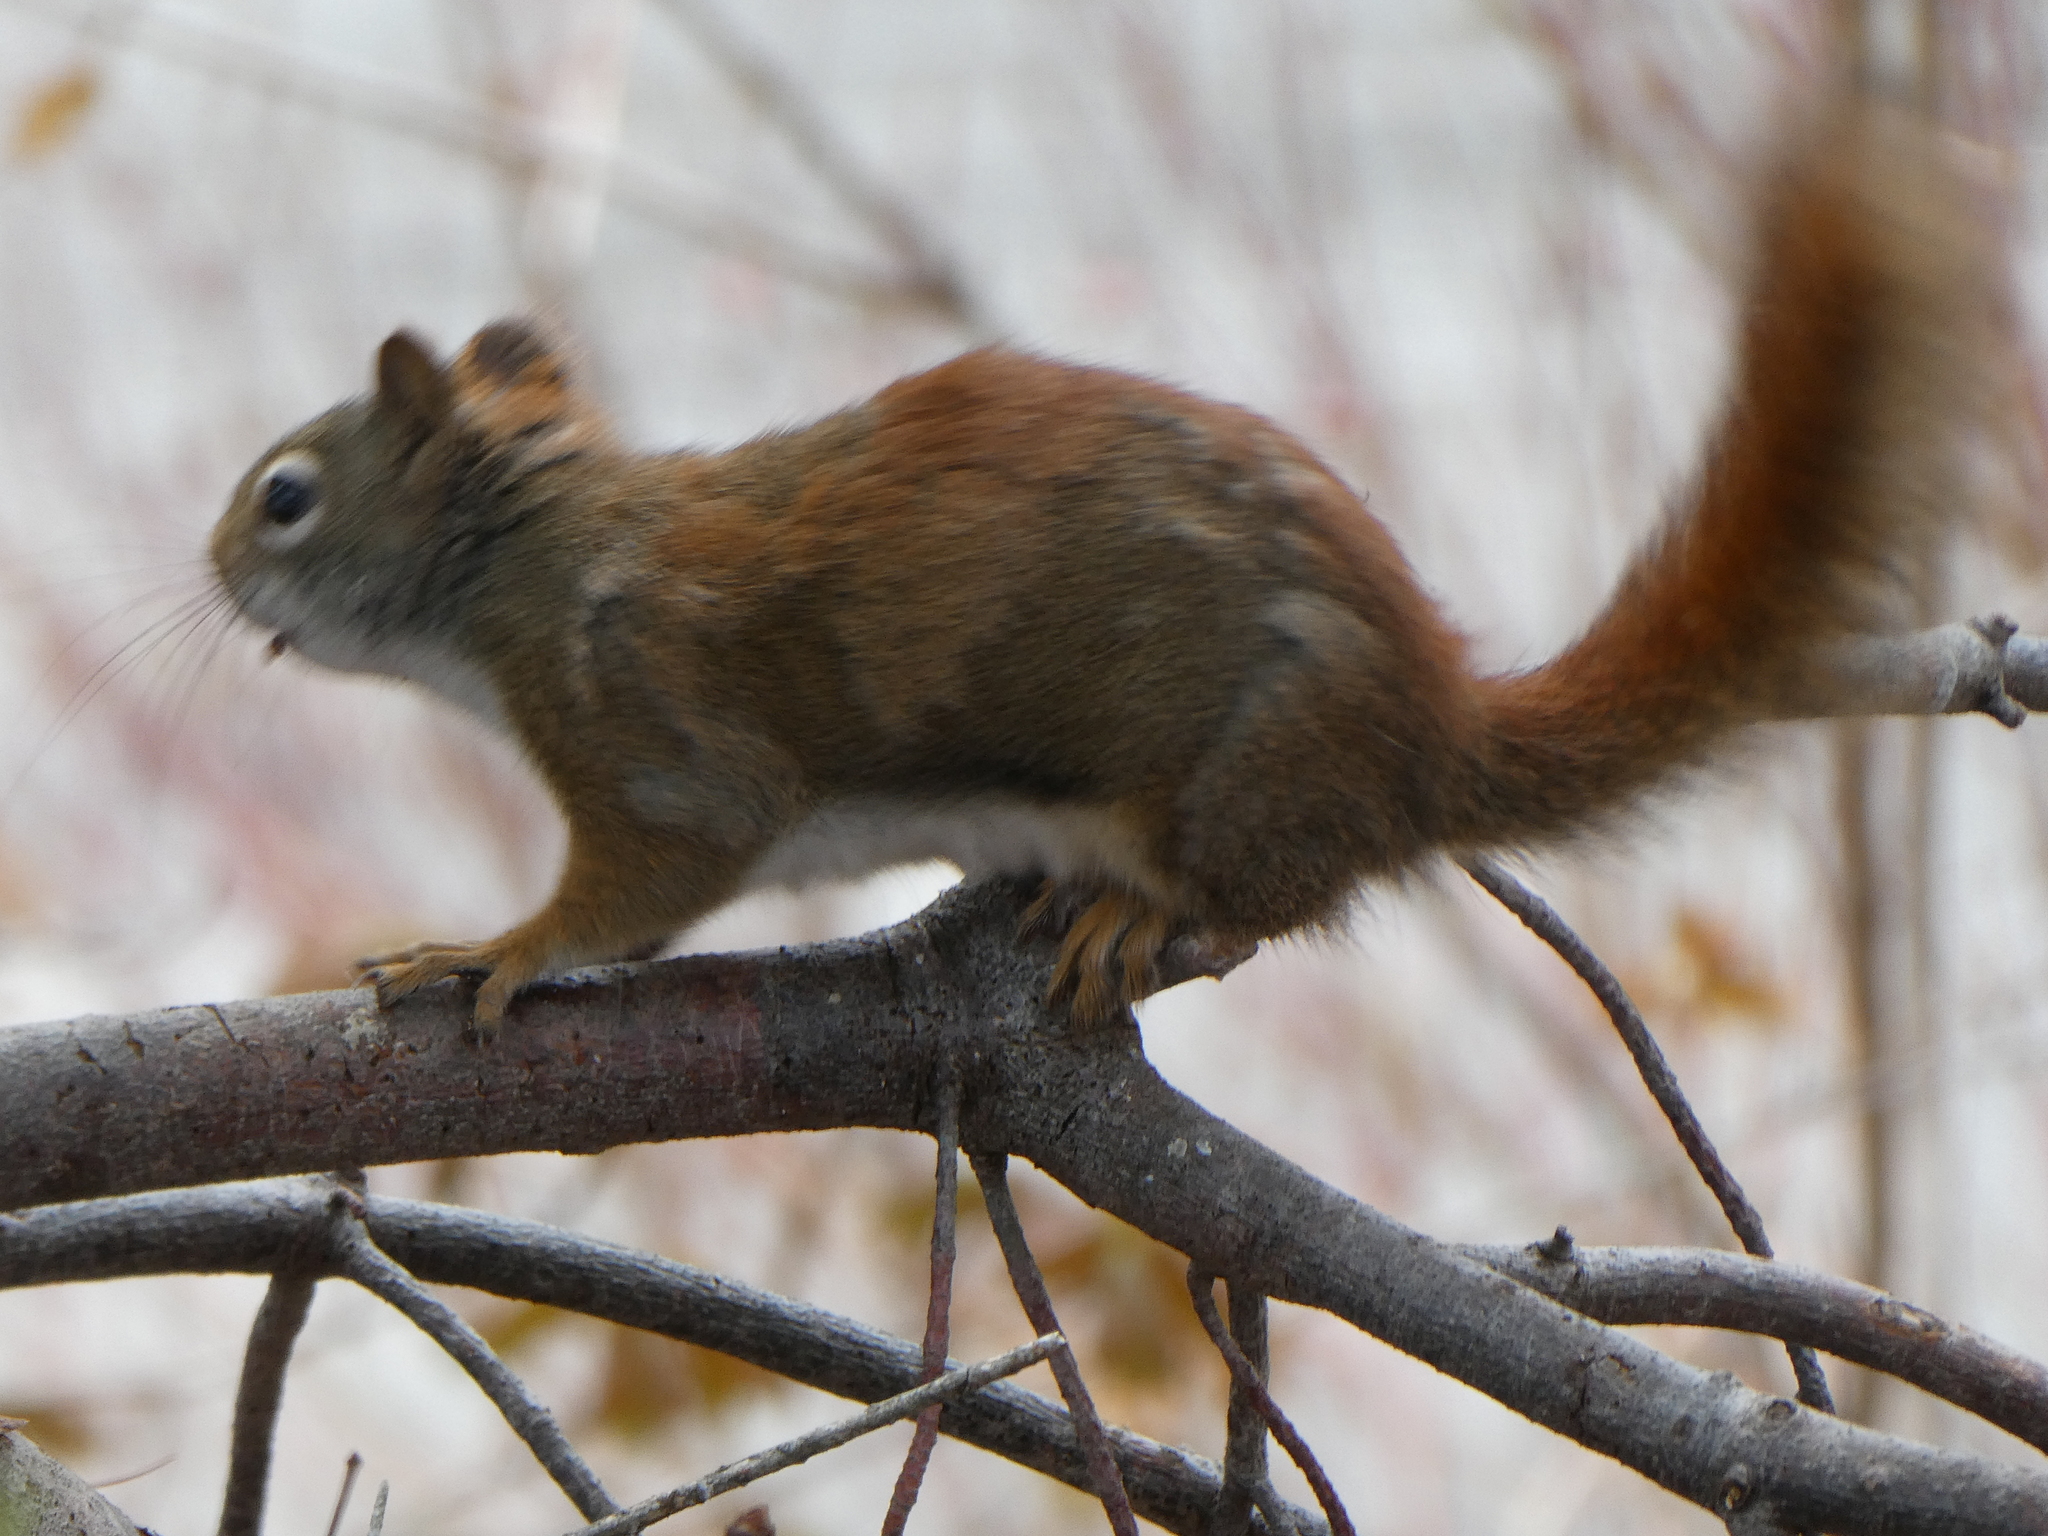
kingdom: Animalia
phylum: Chordata
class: Mammalia
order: Rodentia
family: Sciuridae
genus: Tamiasciurus
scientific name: Tamiasciurus hudsonicus
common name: Red squirrel
